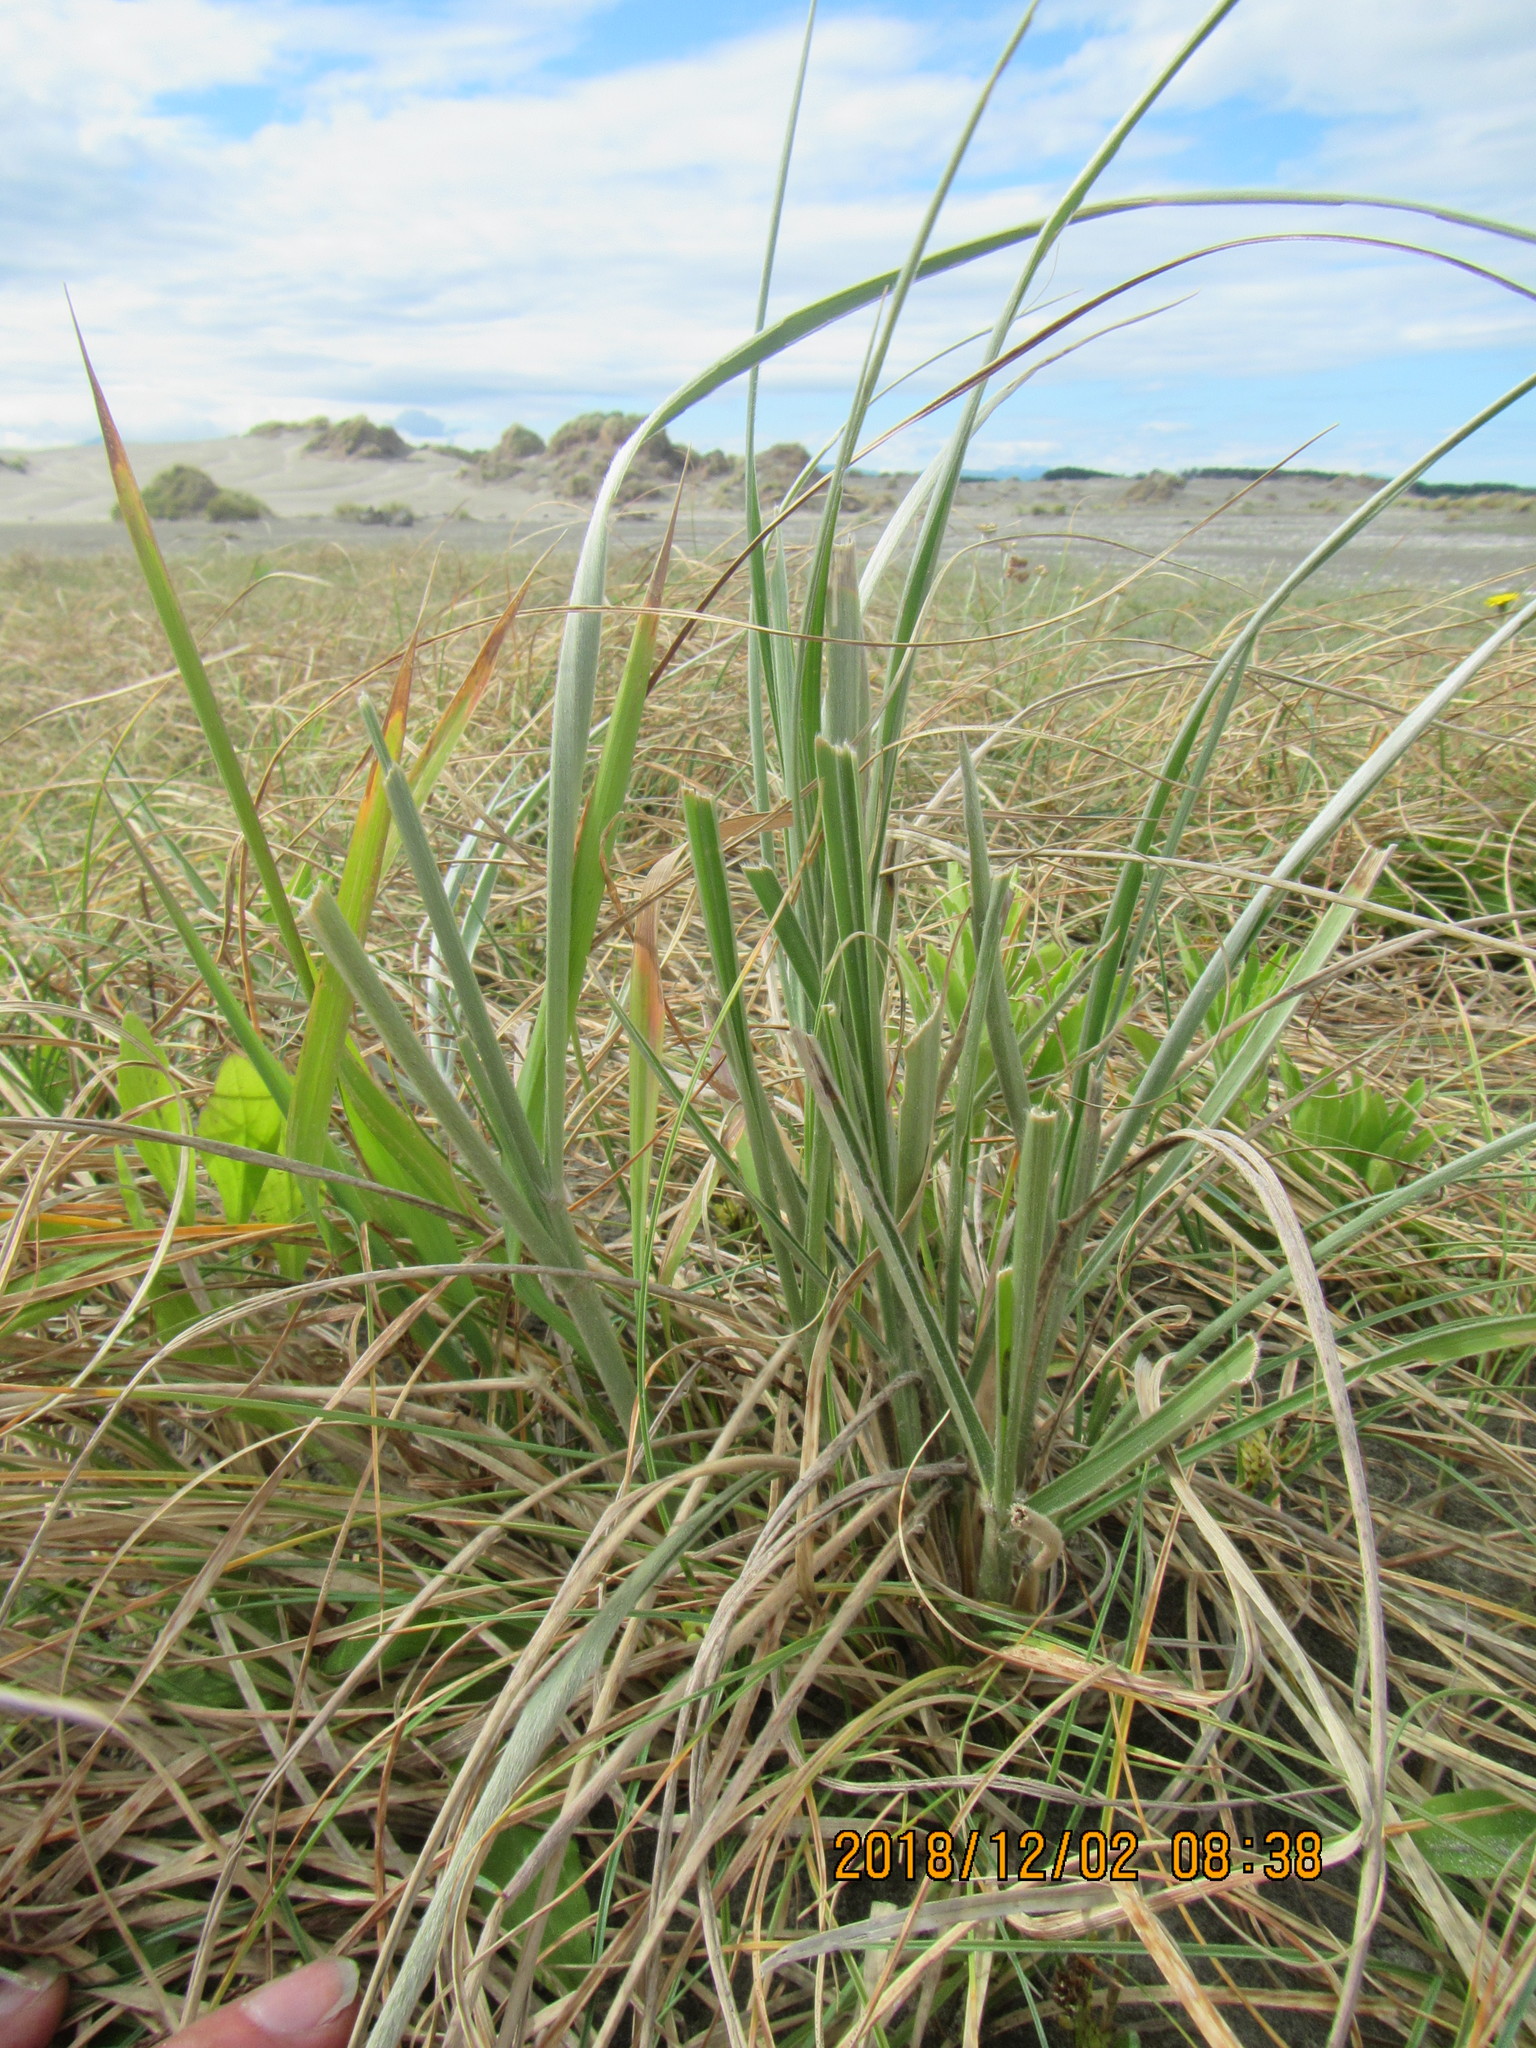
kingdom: Plantae
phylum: Tracheophyta
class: Liliopsida
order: Poales
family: Poaceae
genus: Spinifex
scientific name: Spinifex sericeus
